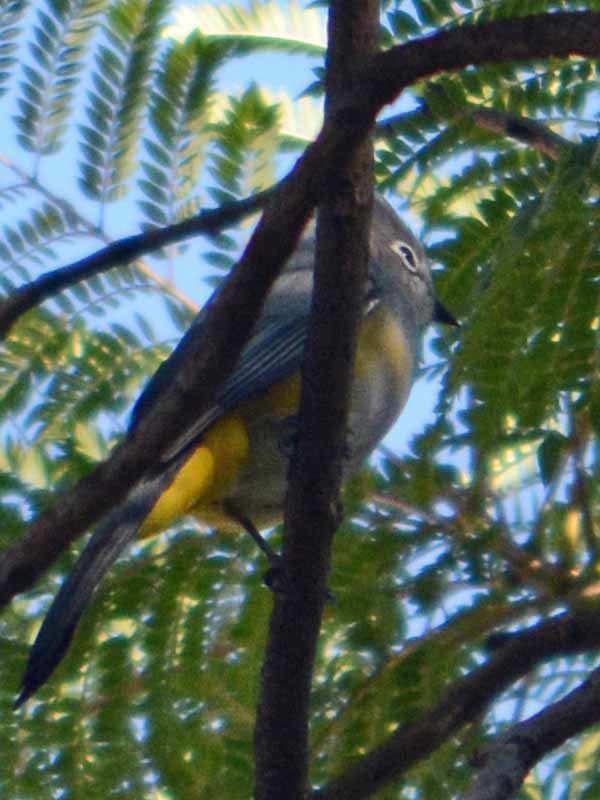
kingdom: Animalia
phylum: Chordata
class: Aves
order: Passeriformes
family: Ptilogonatidae
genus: Ptilogonys
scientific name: Ptilogonys cinereus
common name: Gray silky-flycatcher
